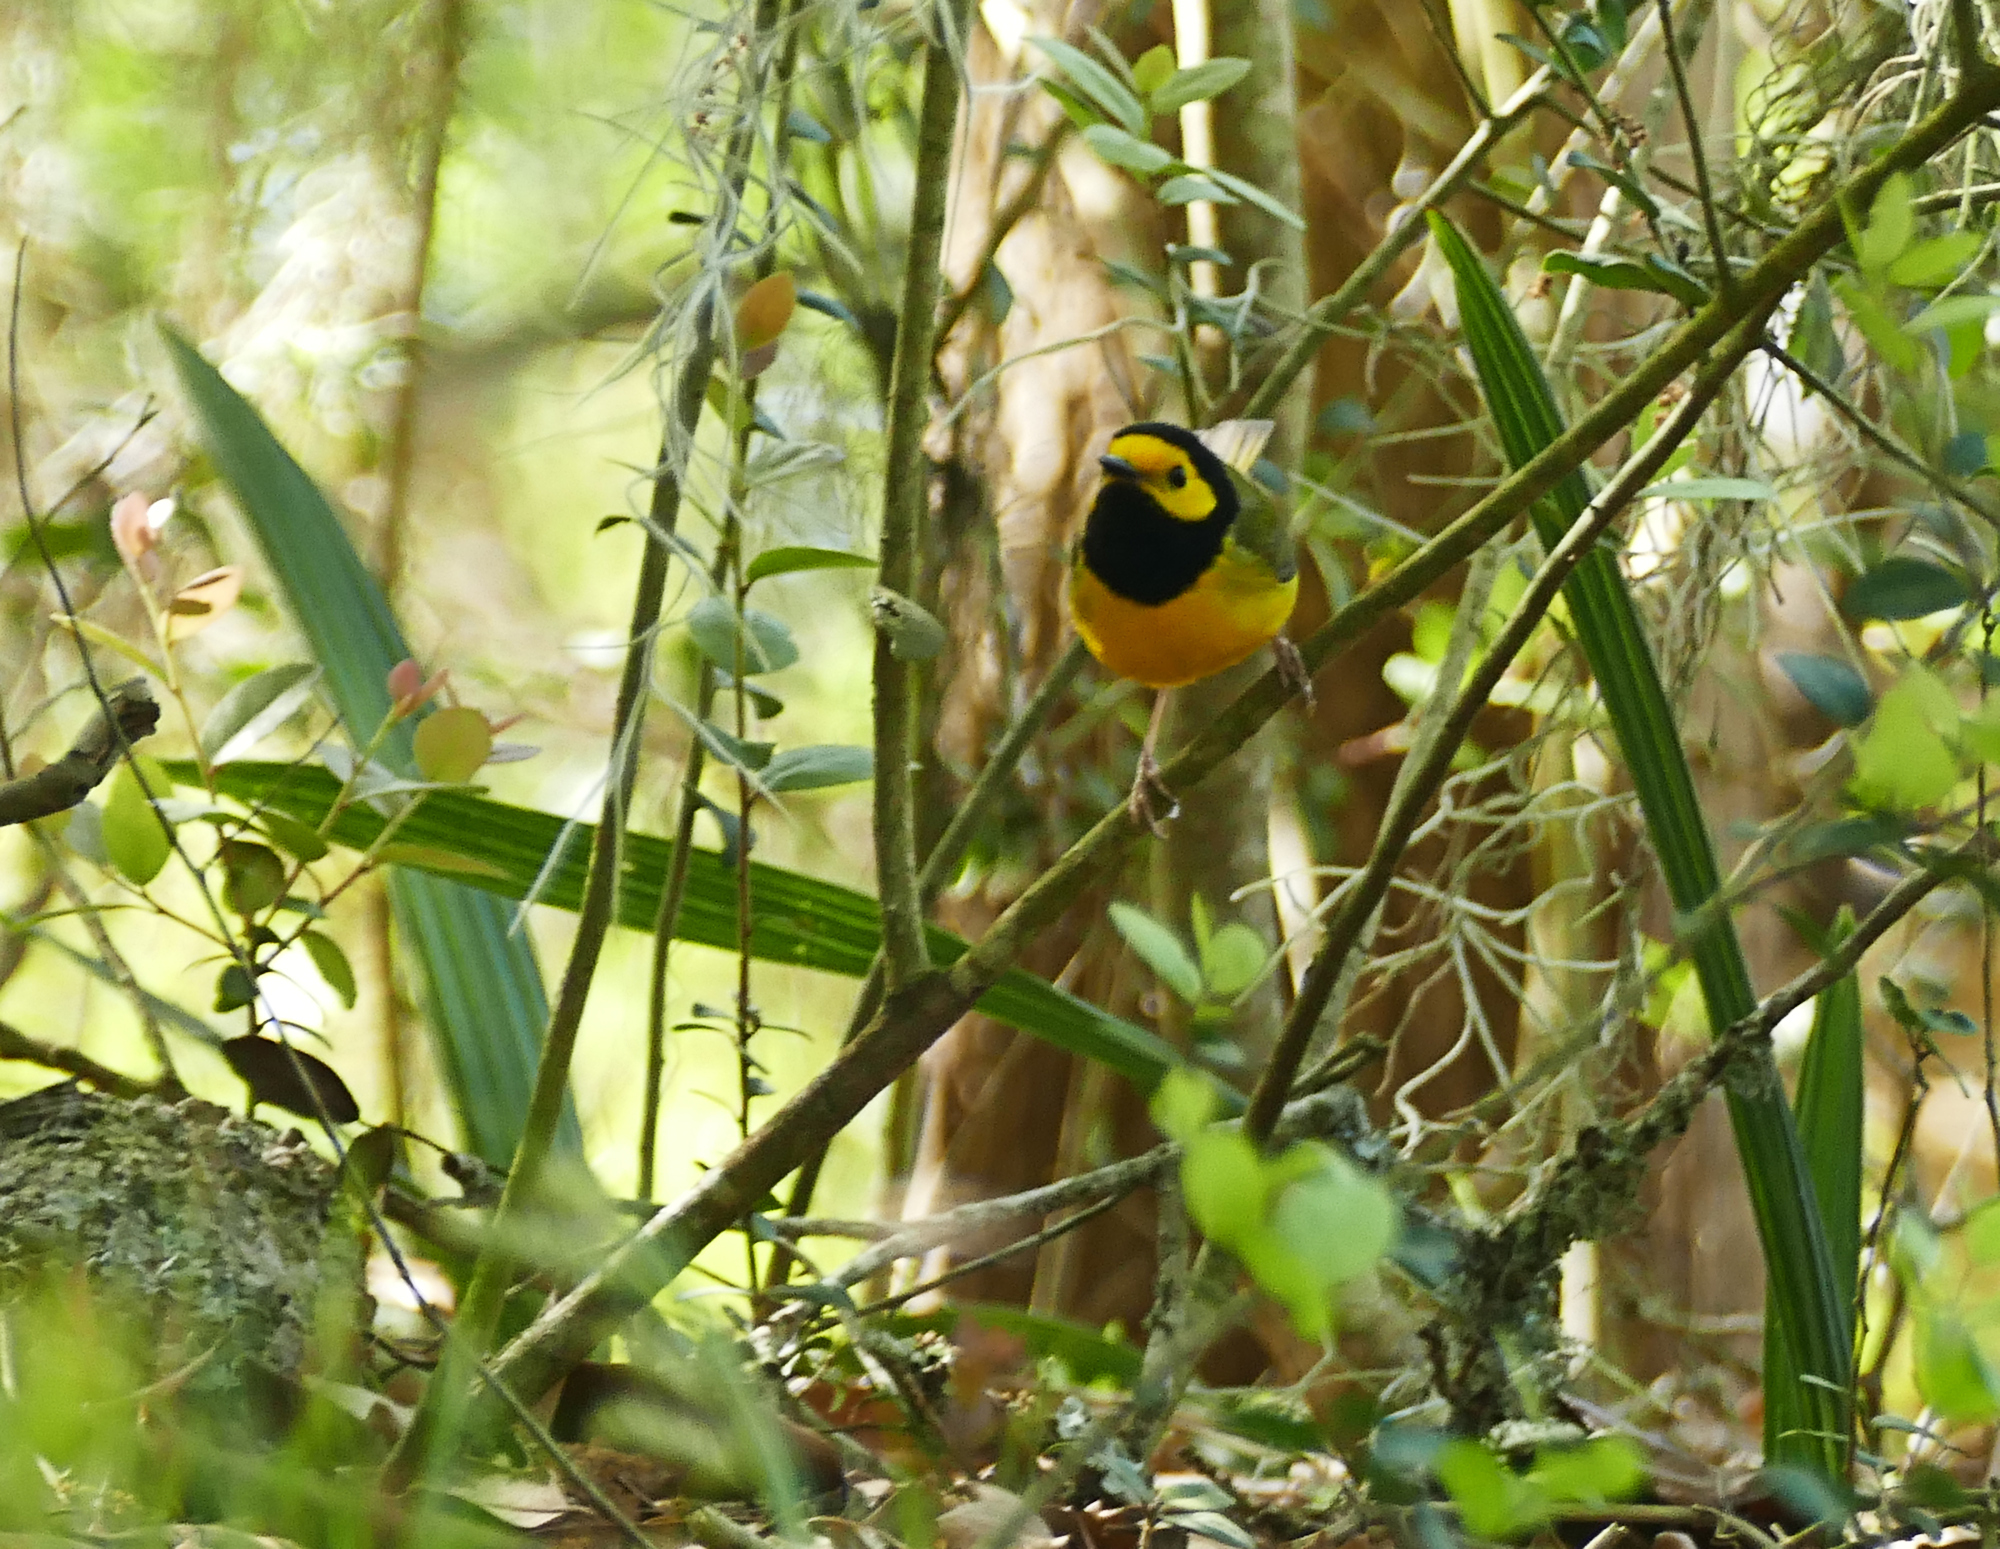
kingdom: Animalia
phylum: Chordata
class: Aves
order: Passeriformes
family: Parulidae
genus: Setophaga
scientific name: Setophaga citrina
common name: Hooded warbler
